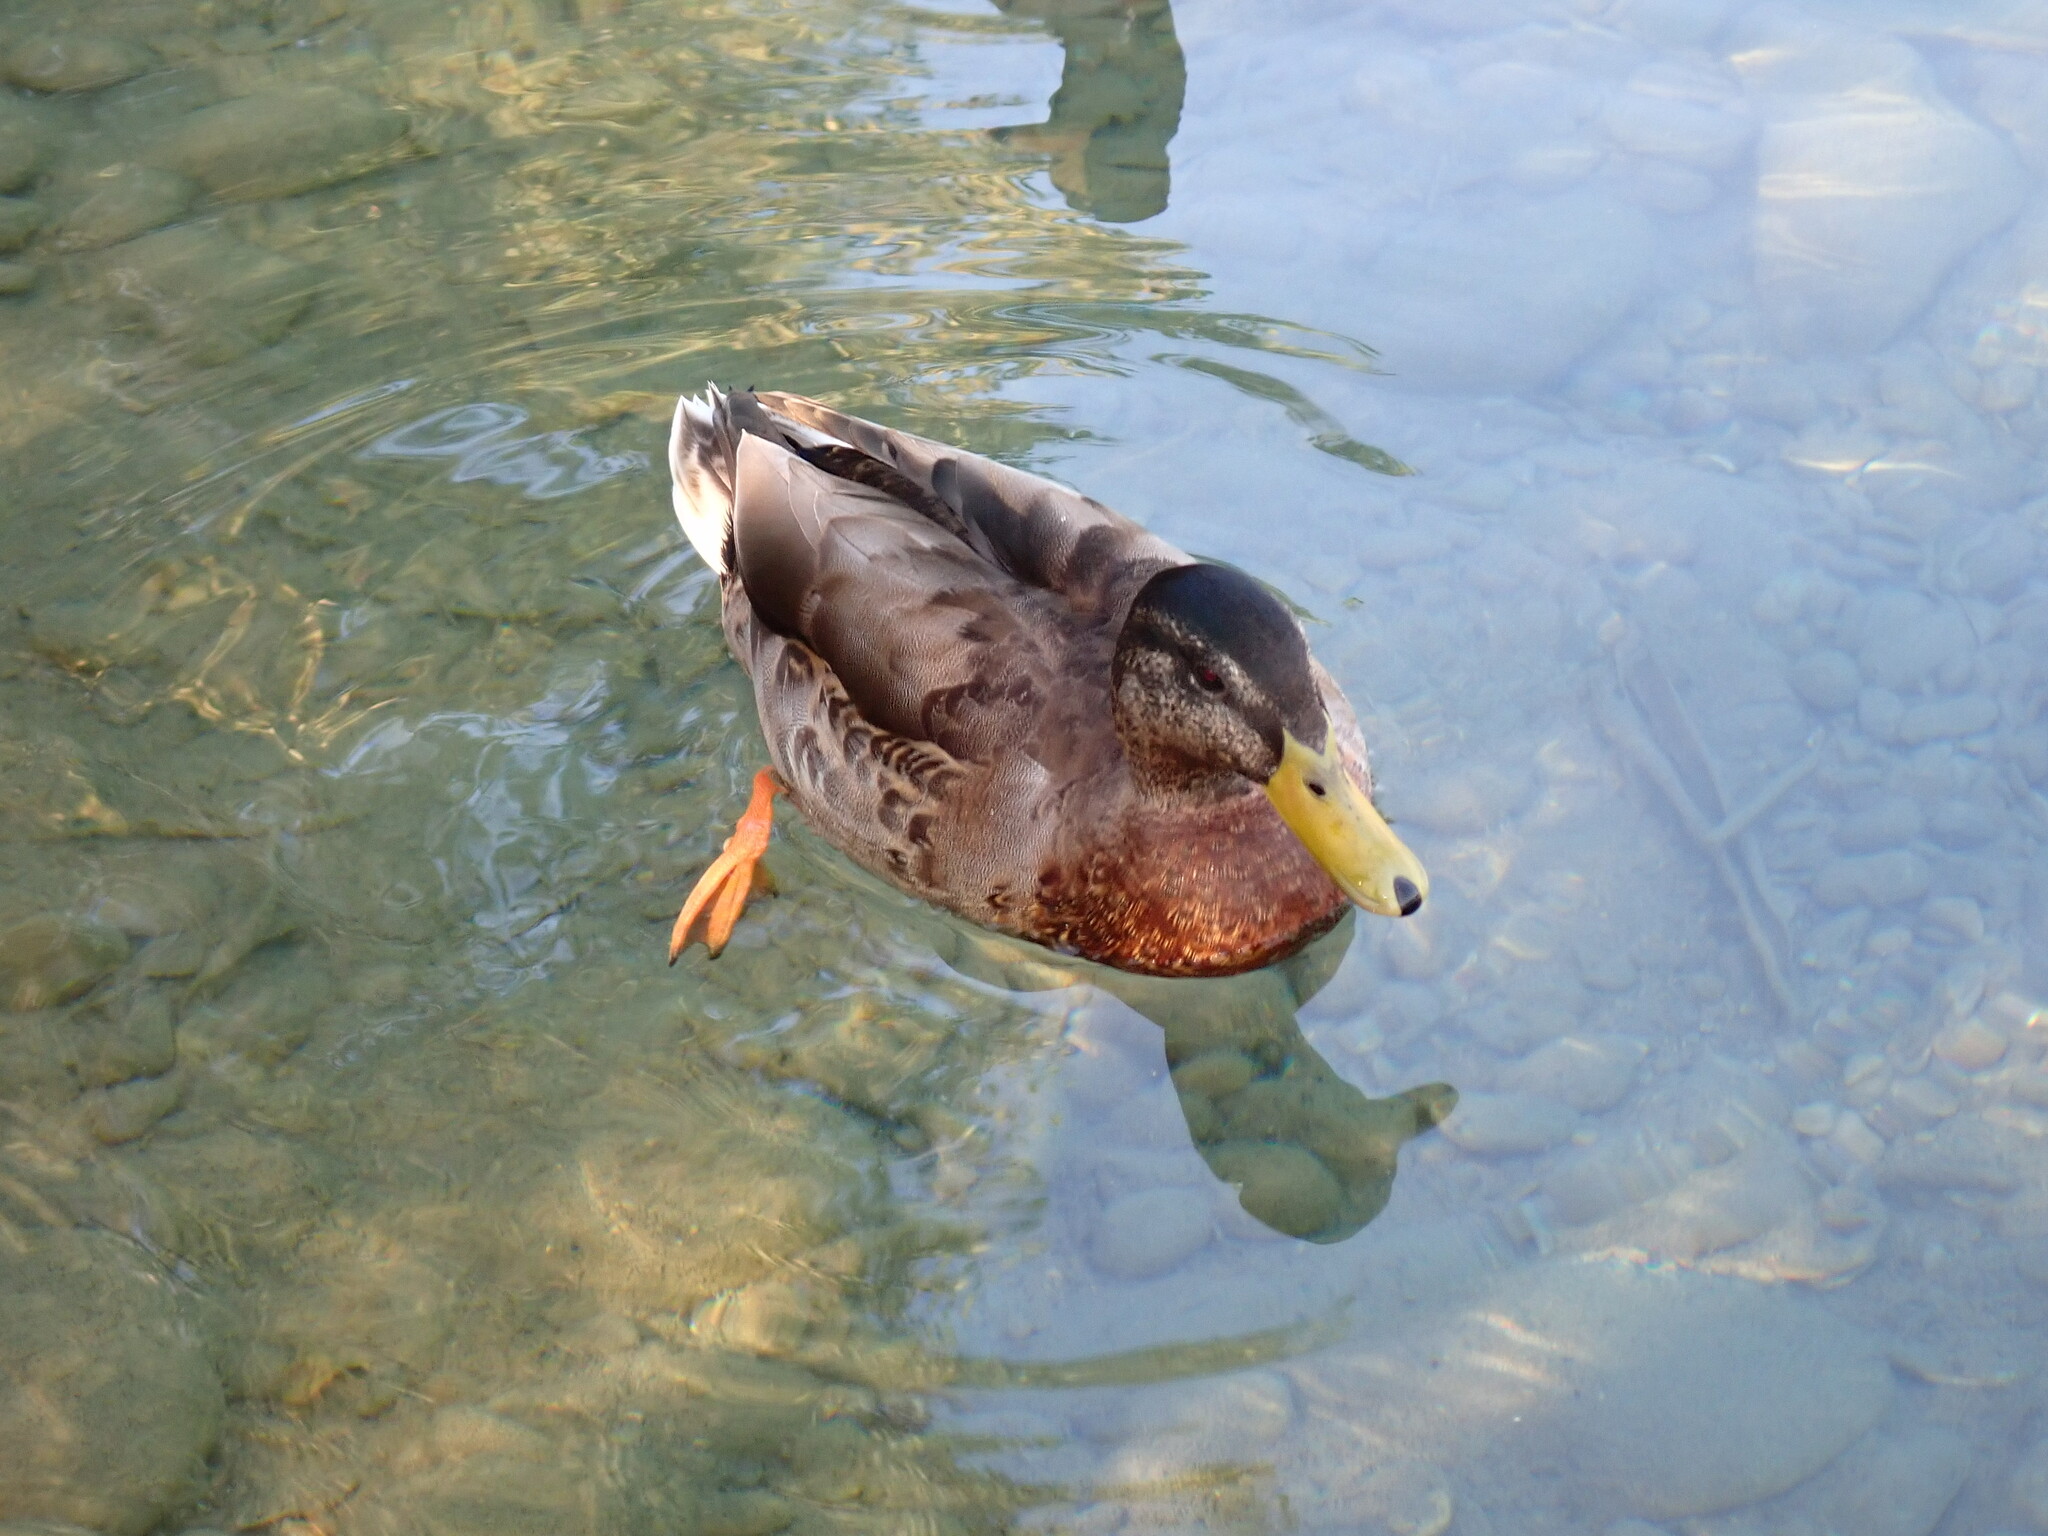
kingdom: Animalia
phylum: Chordata
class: Aves
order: Anseriformes
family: Anatidae
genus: Anas
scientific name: Anas platyrhynchos
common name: Mallard
